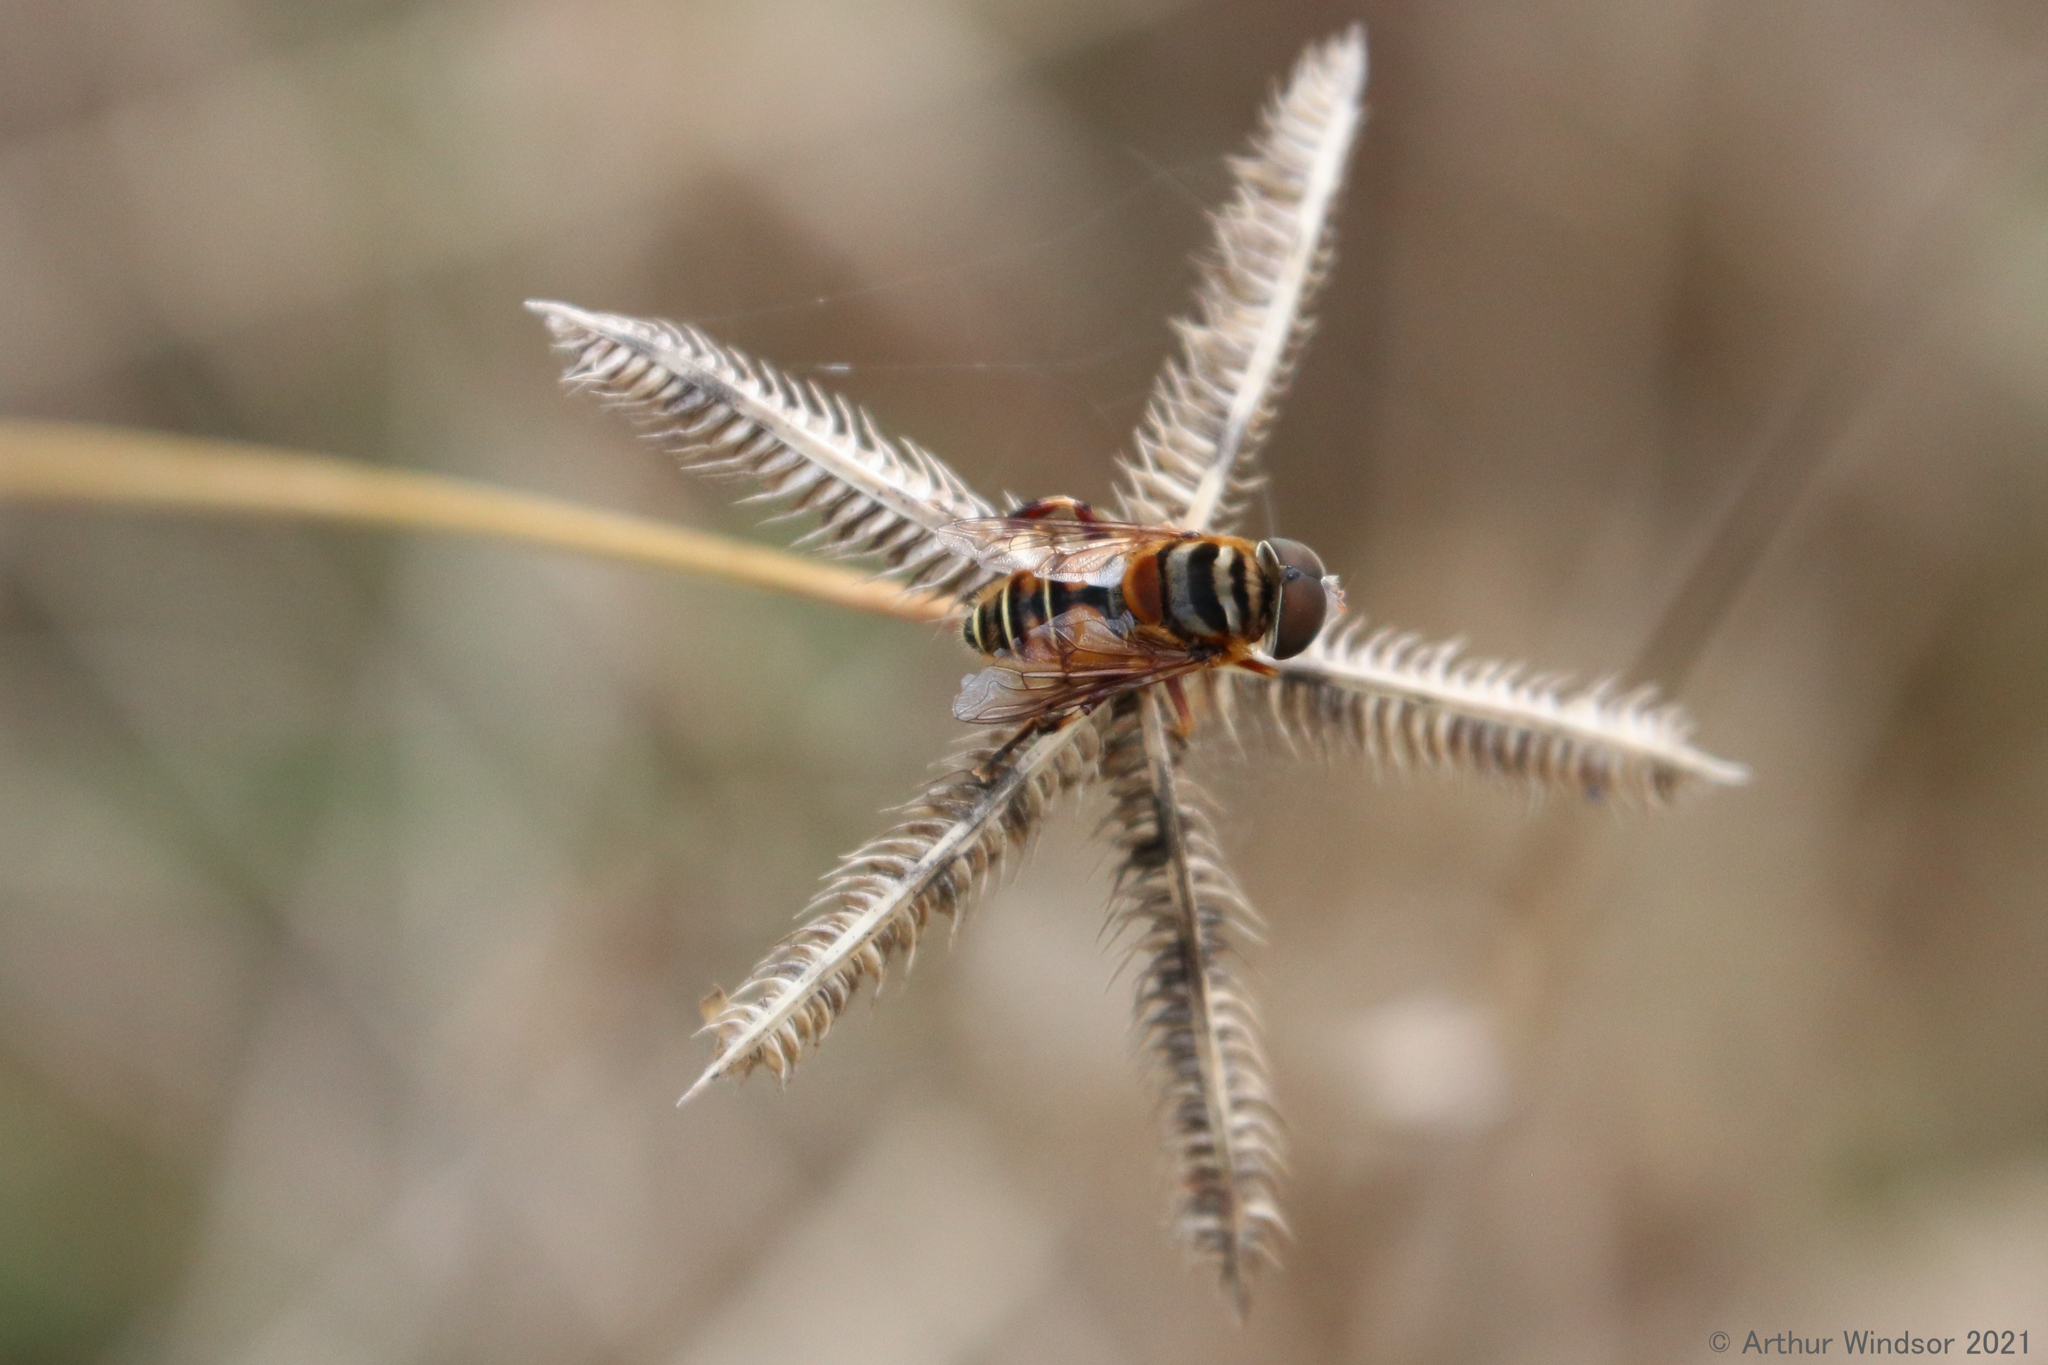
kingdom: Animalia
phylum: Arthropoda
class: Insecta
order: Diptera
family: Syrphidae
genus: Palpada
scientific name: Palpada vinetorum
